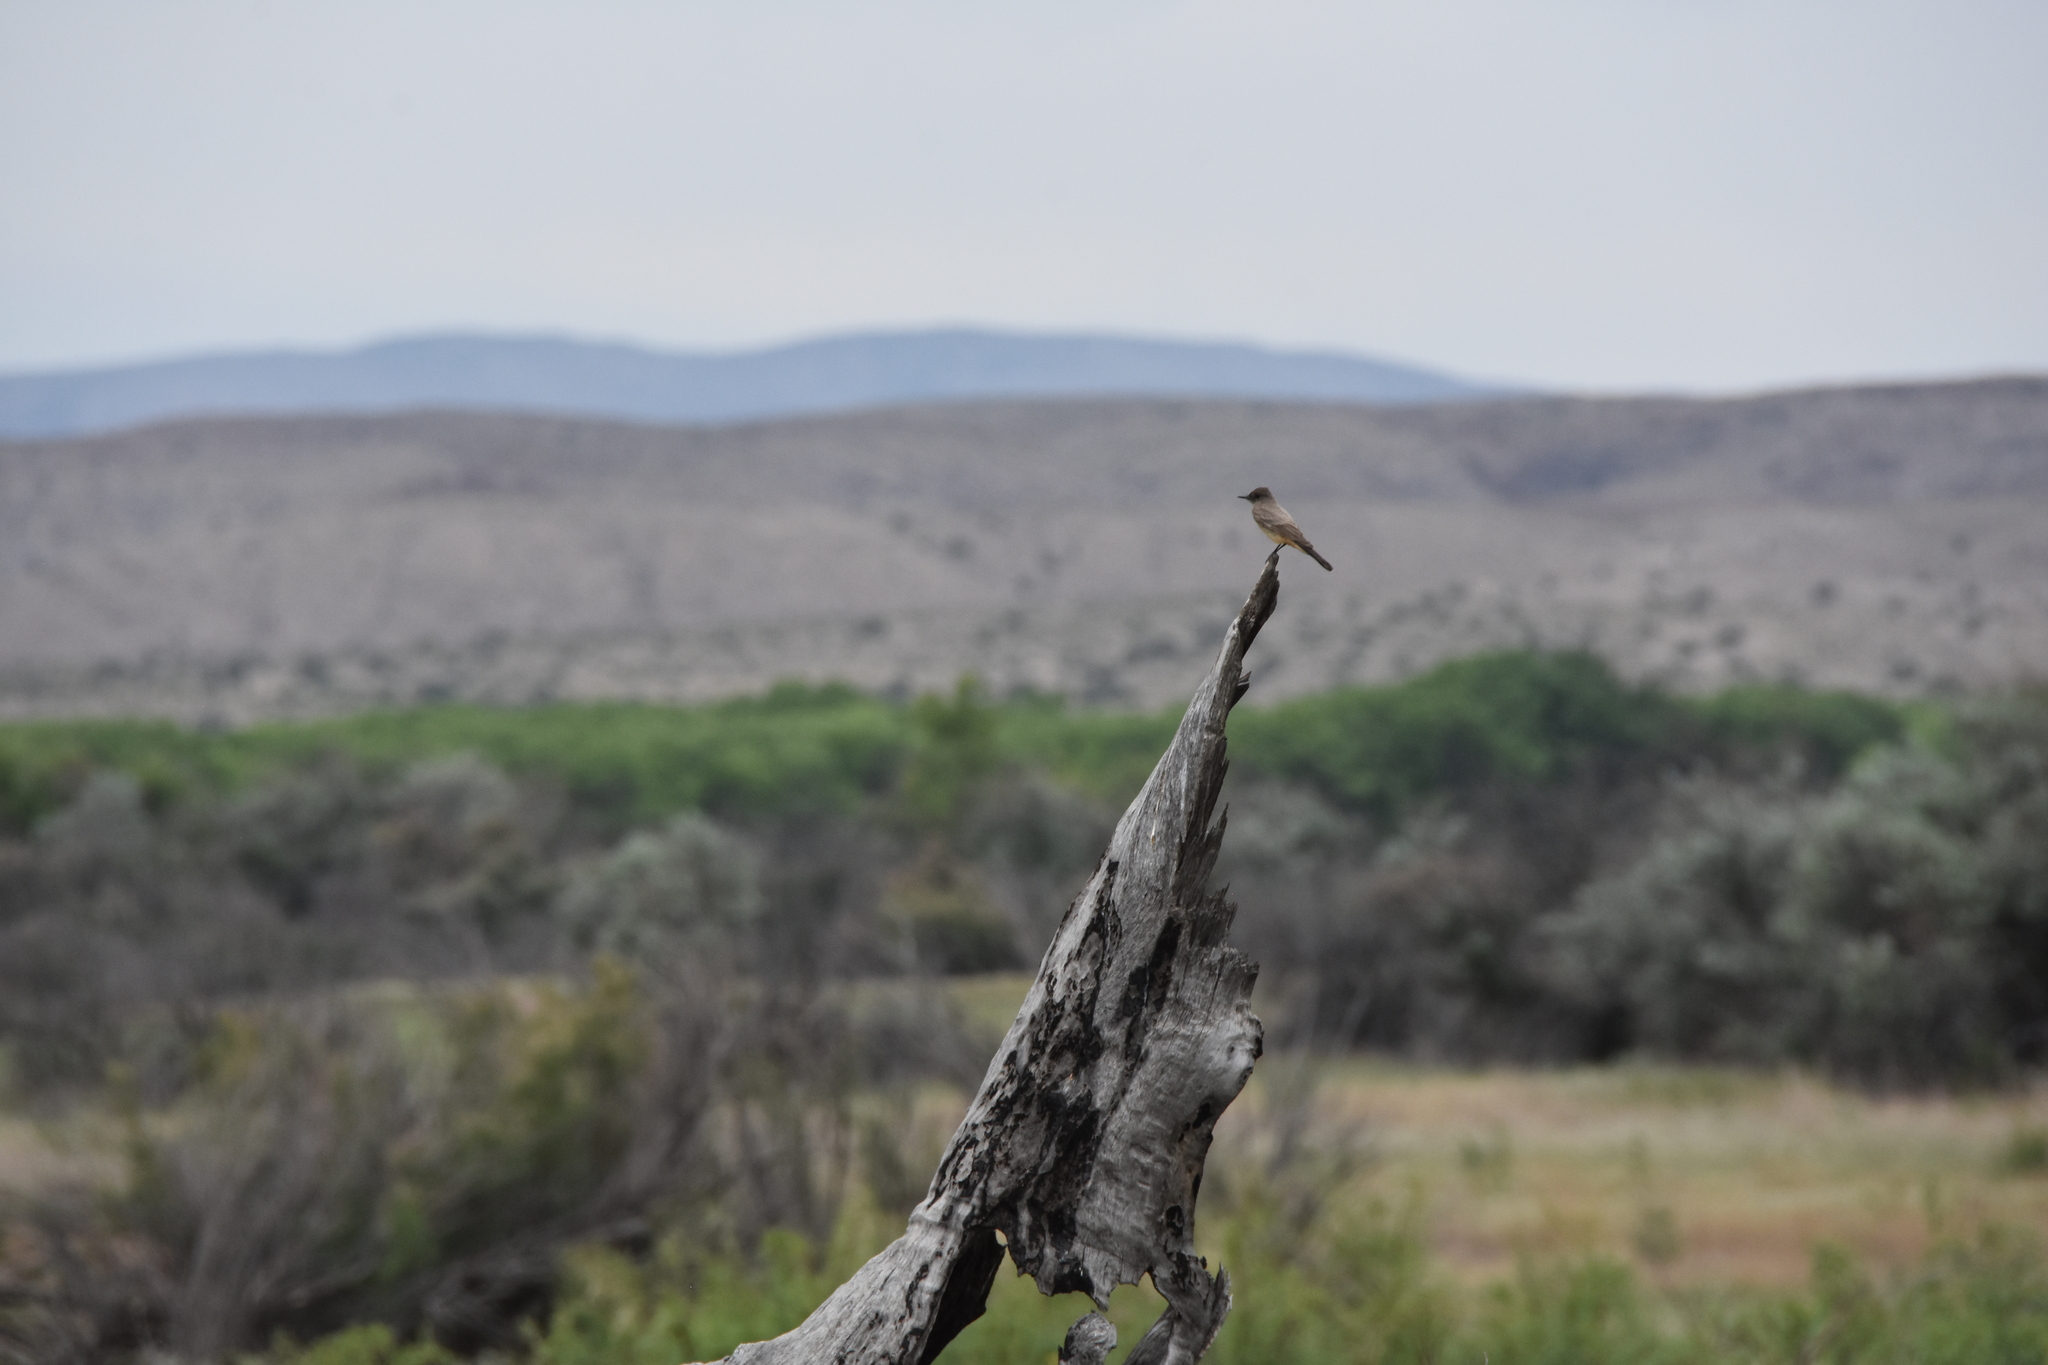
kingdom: Animalia
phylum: Chordata
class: Aves
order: Passeriformes
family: Tyrannidae
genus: Sayornis
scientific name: Sayornis saya
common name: Say's phoebe
